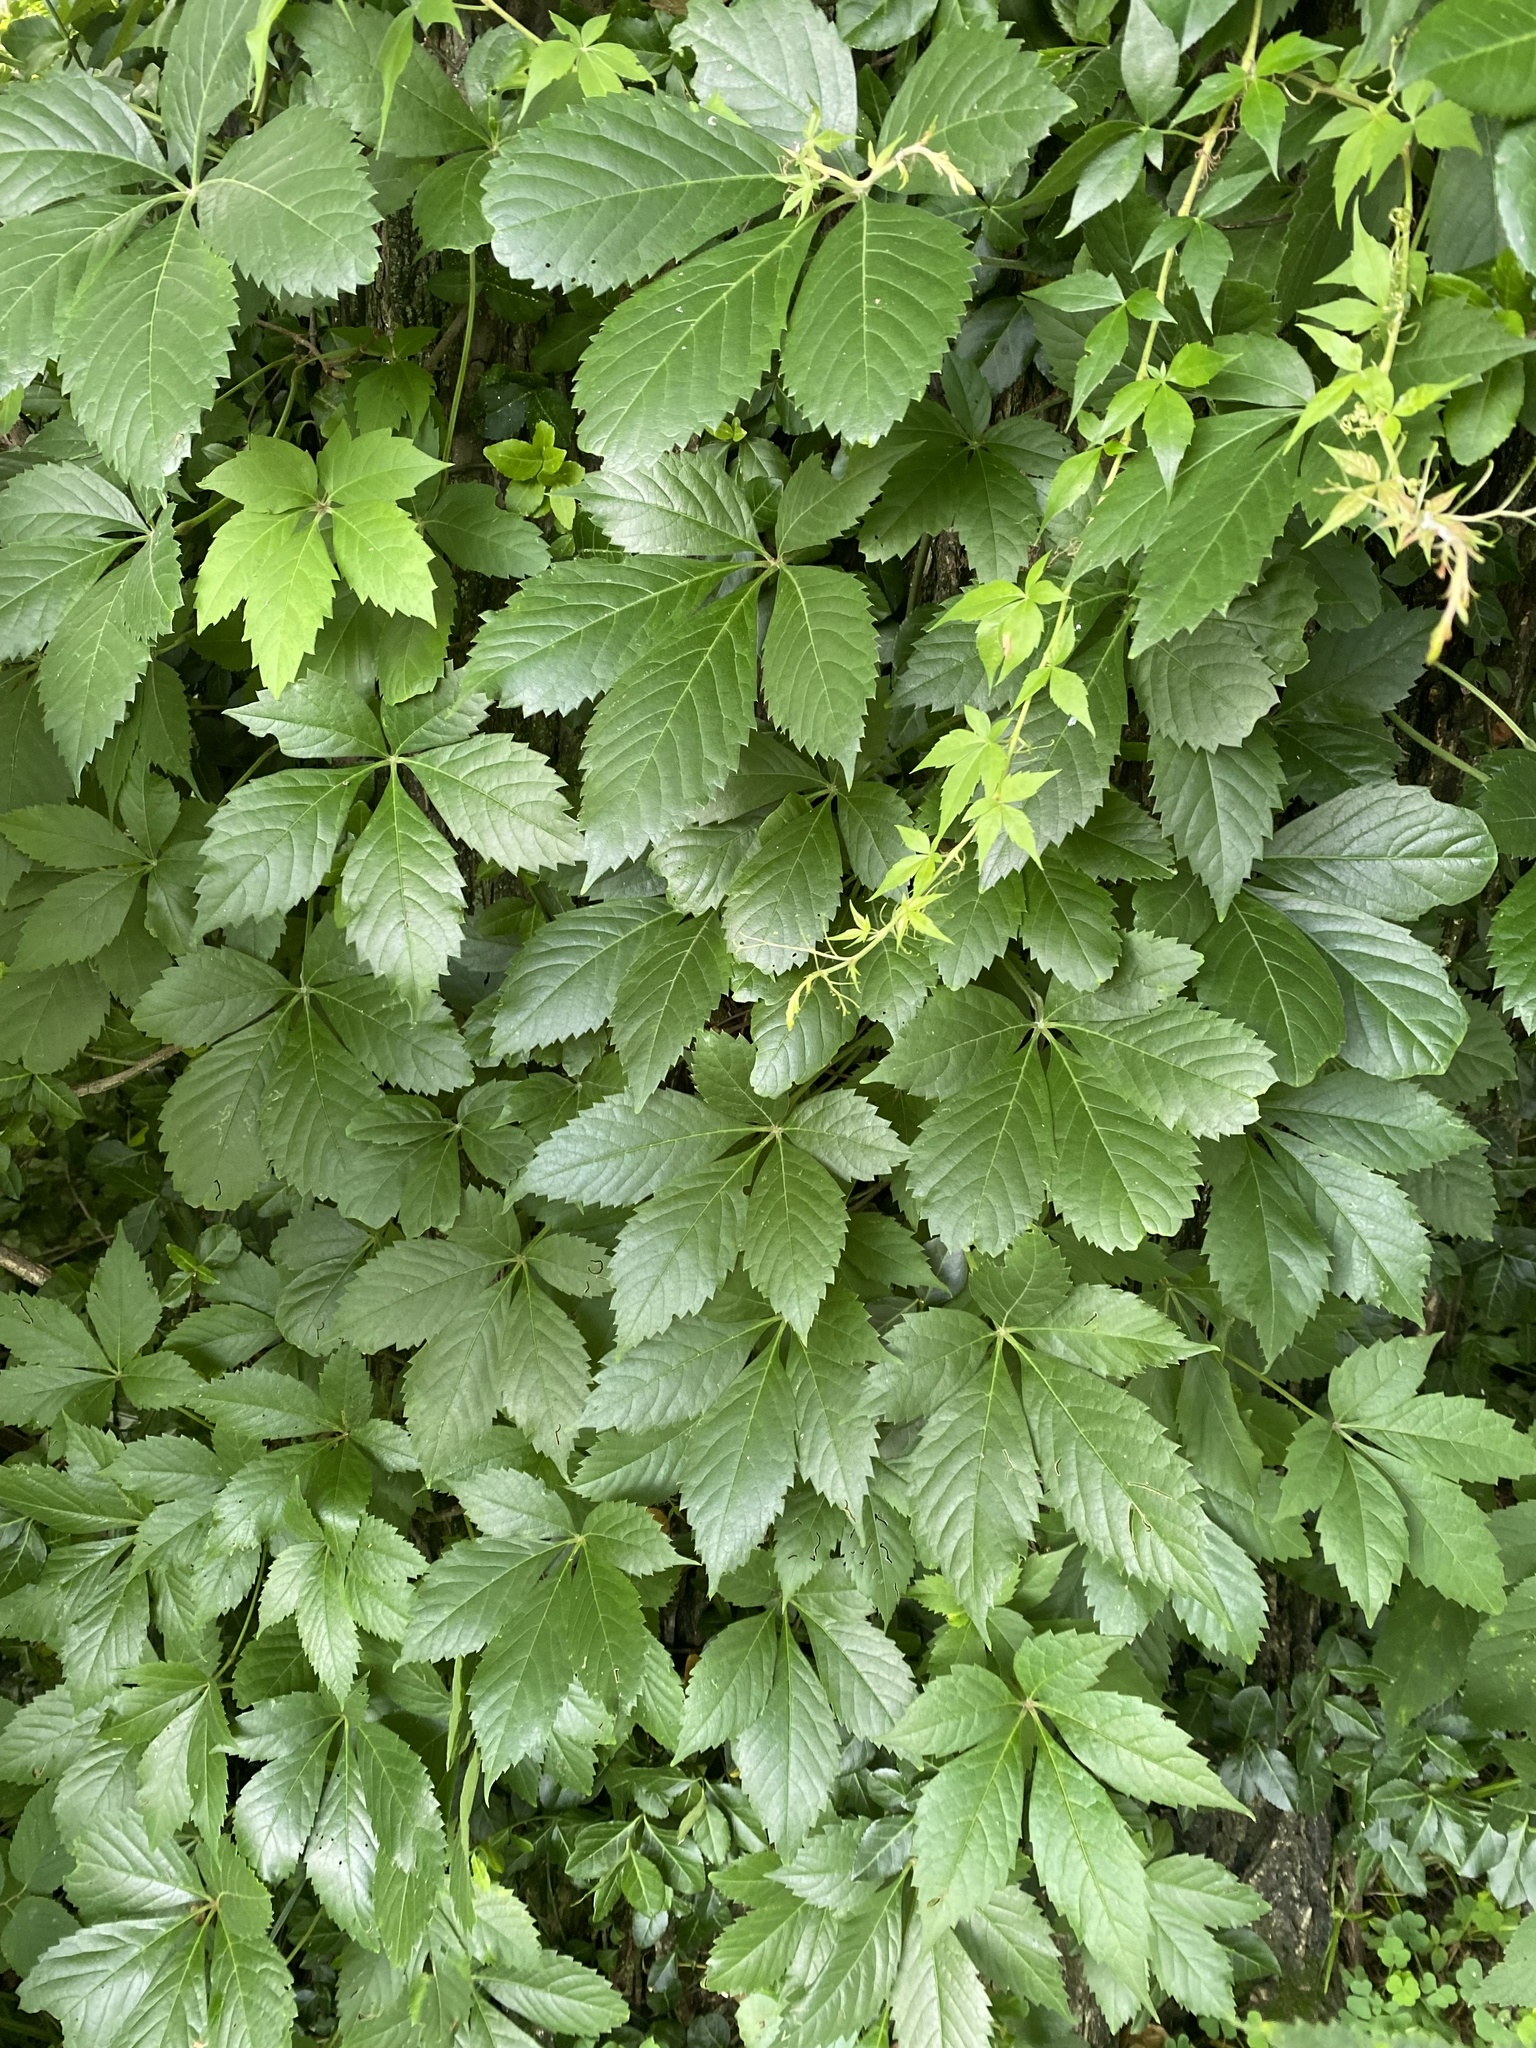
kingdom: Plantae
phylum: Tracheophyta
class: Magnoliopsida
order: Vitales
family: Vitaceae
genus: Parthenocissus
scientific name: Parthenocissus quinquefolia
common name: Virginia-creeper
